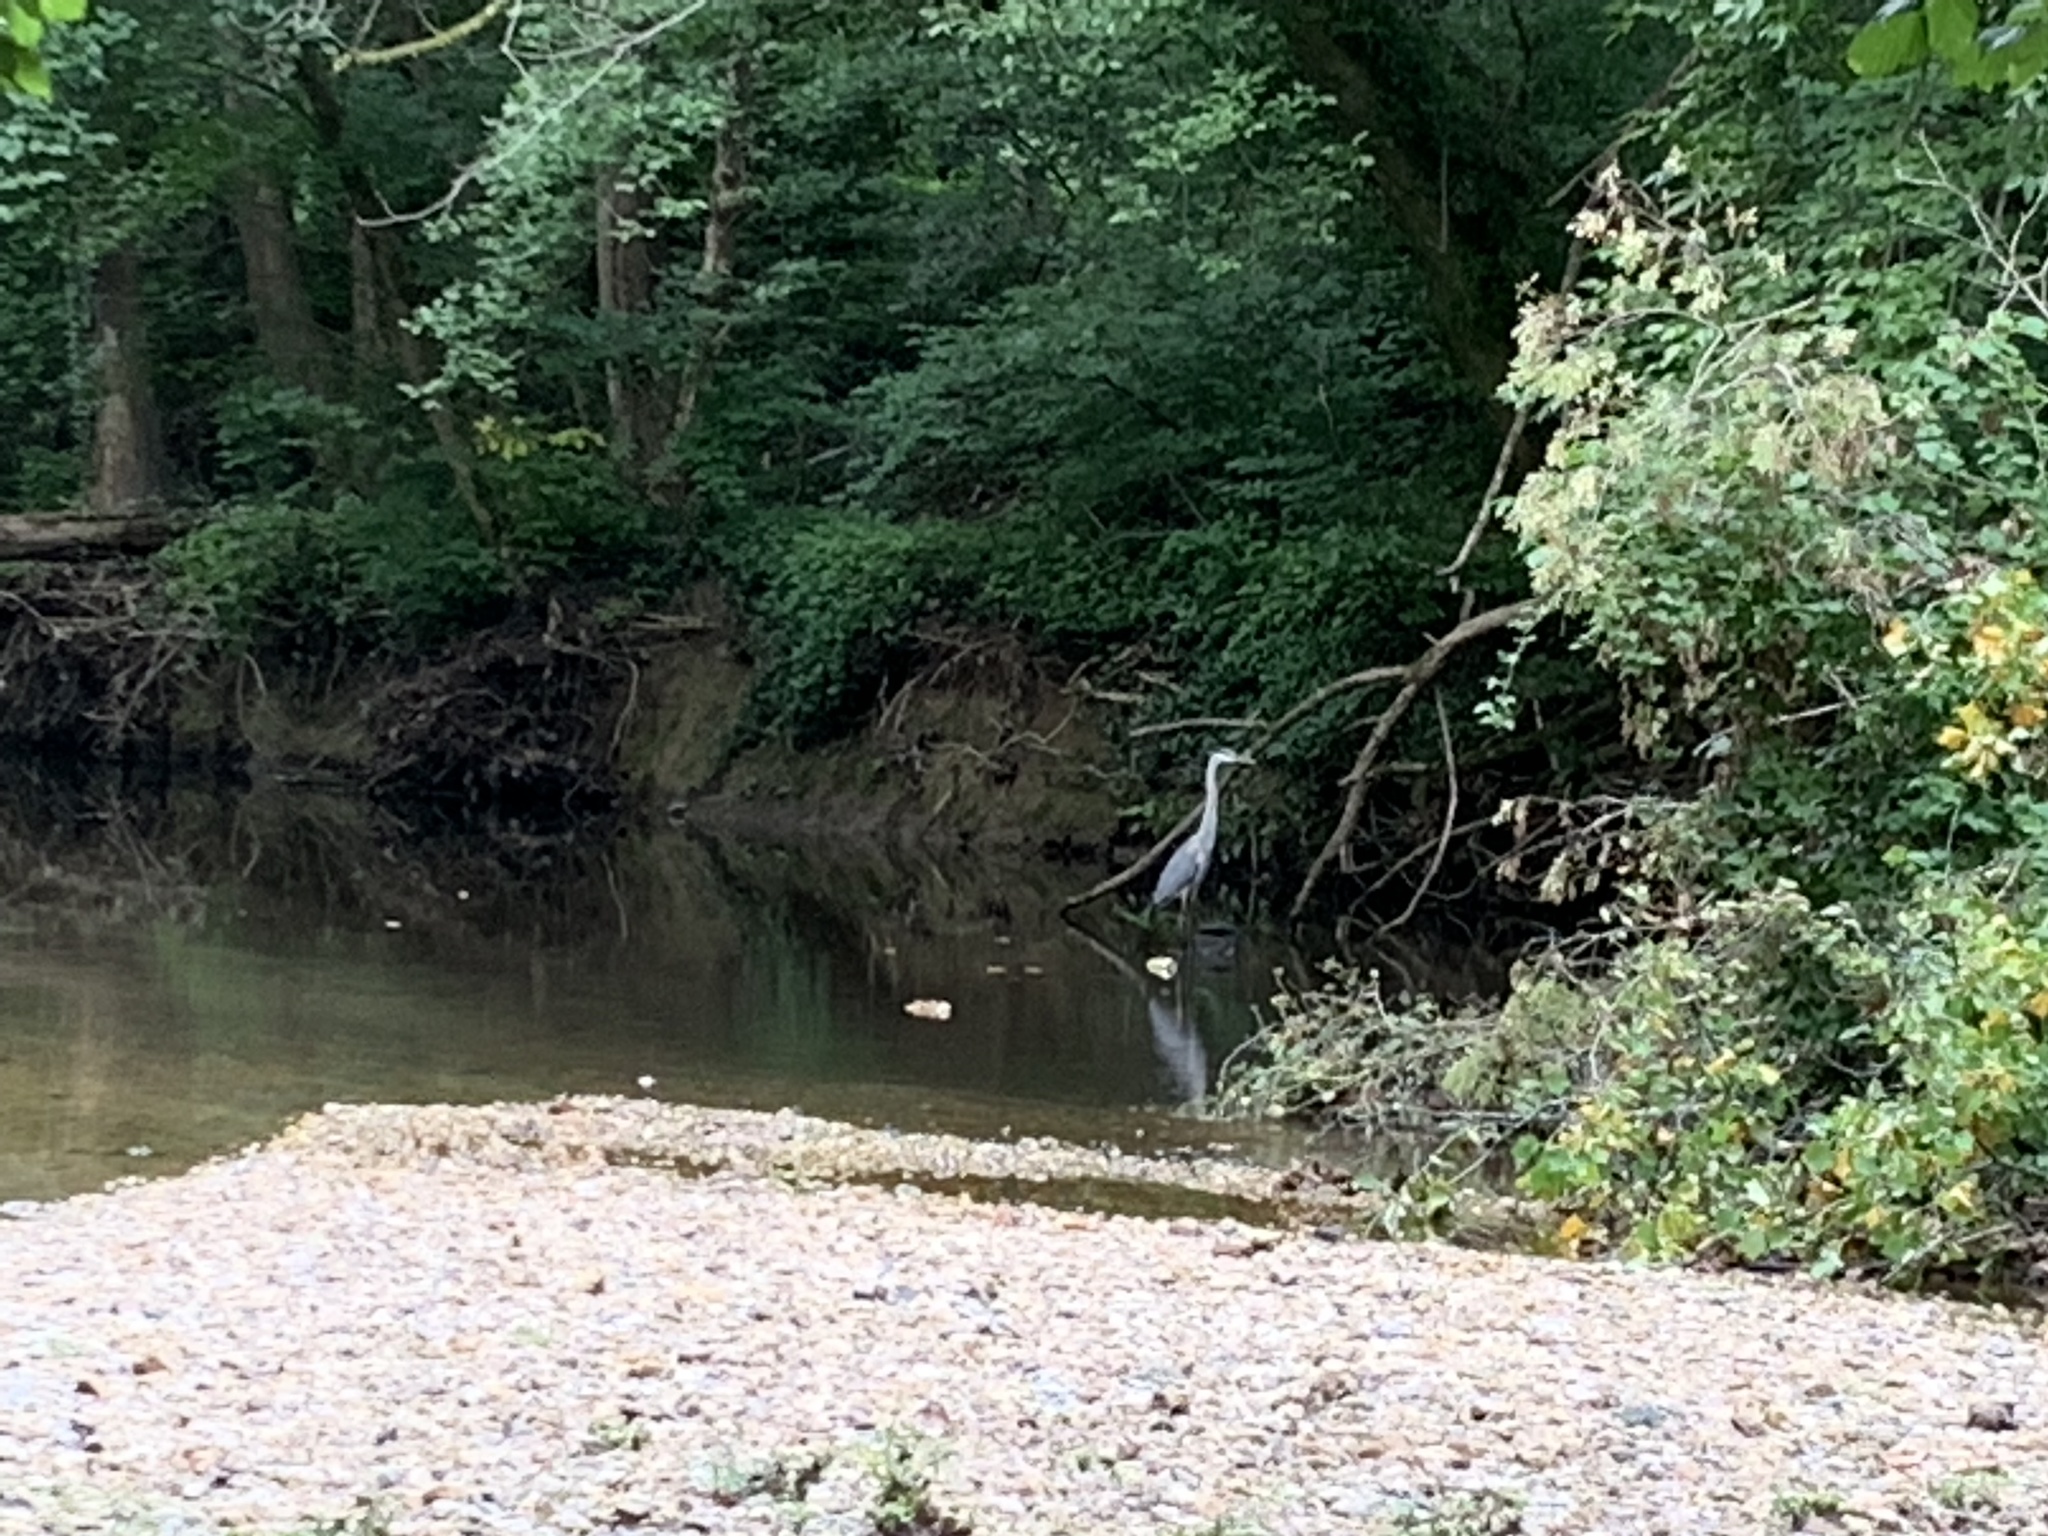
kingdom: Animalia
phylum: Chordata
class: Aves
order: Pelecaniformes
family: Ardeidae
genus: Ardea
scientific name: Ardea herodias
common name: Great blue heron
